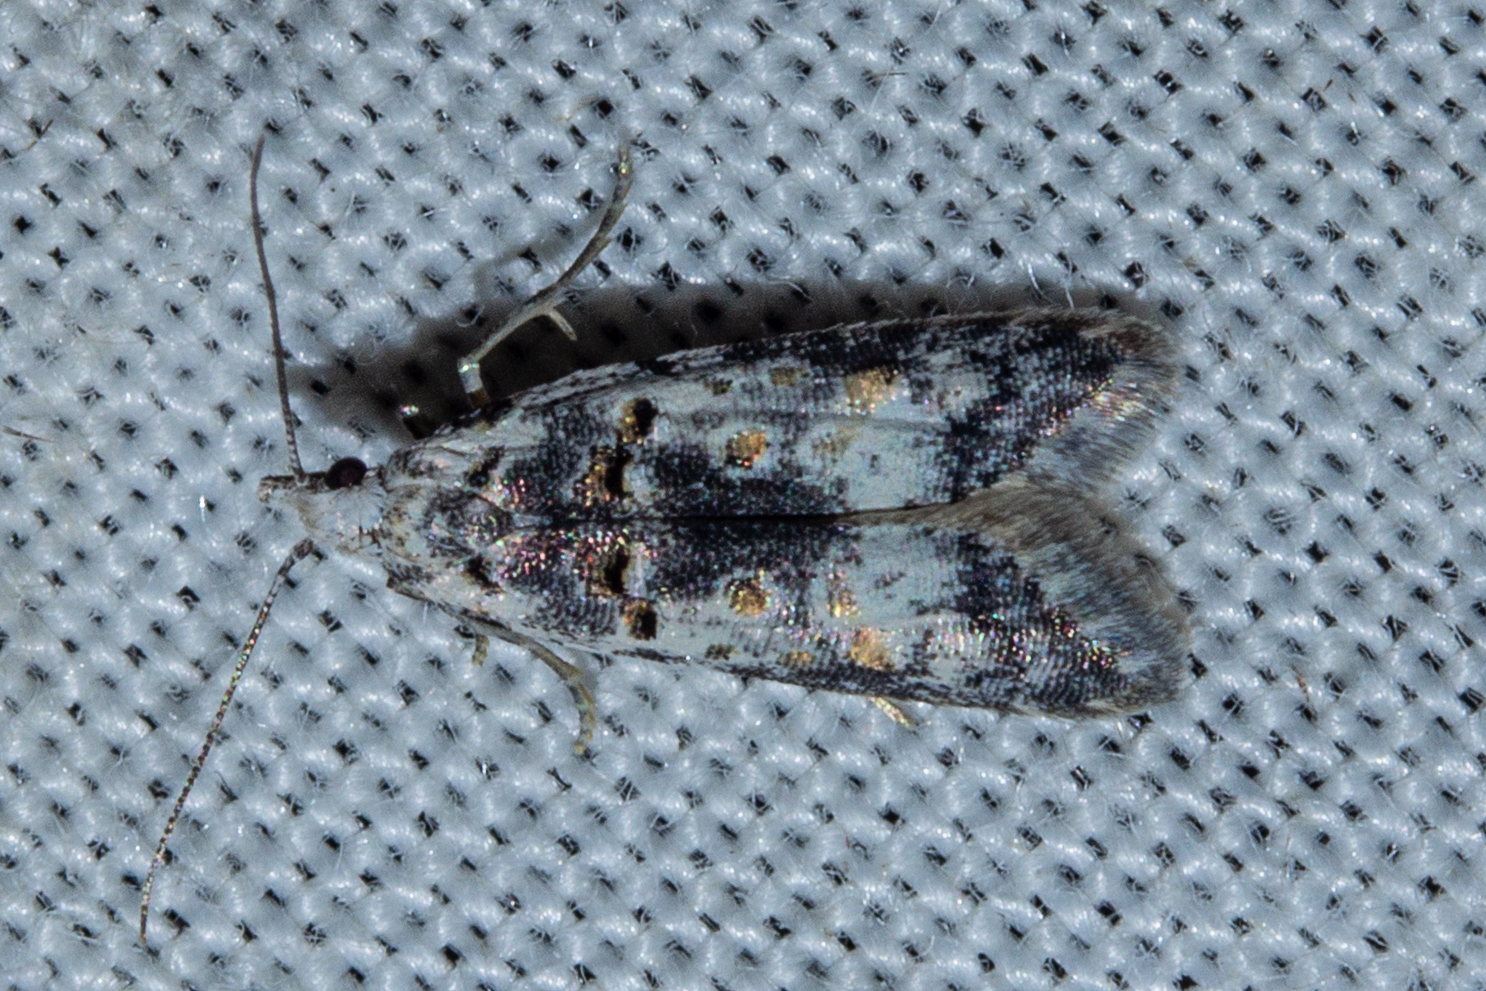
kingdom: Animalia
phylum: Arthropoda
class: Insecta
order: Lepidoptera
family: Carposinidae
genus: Carposina
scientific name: Carposina
